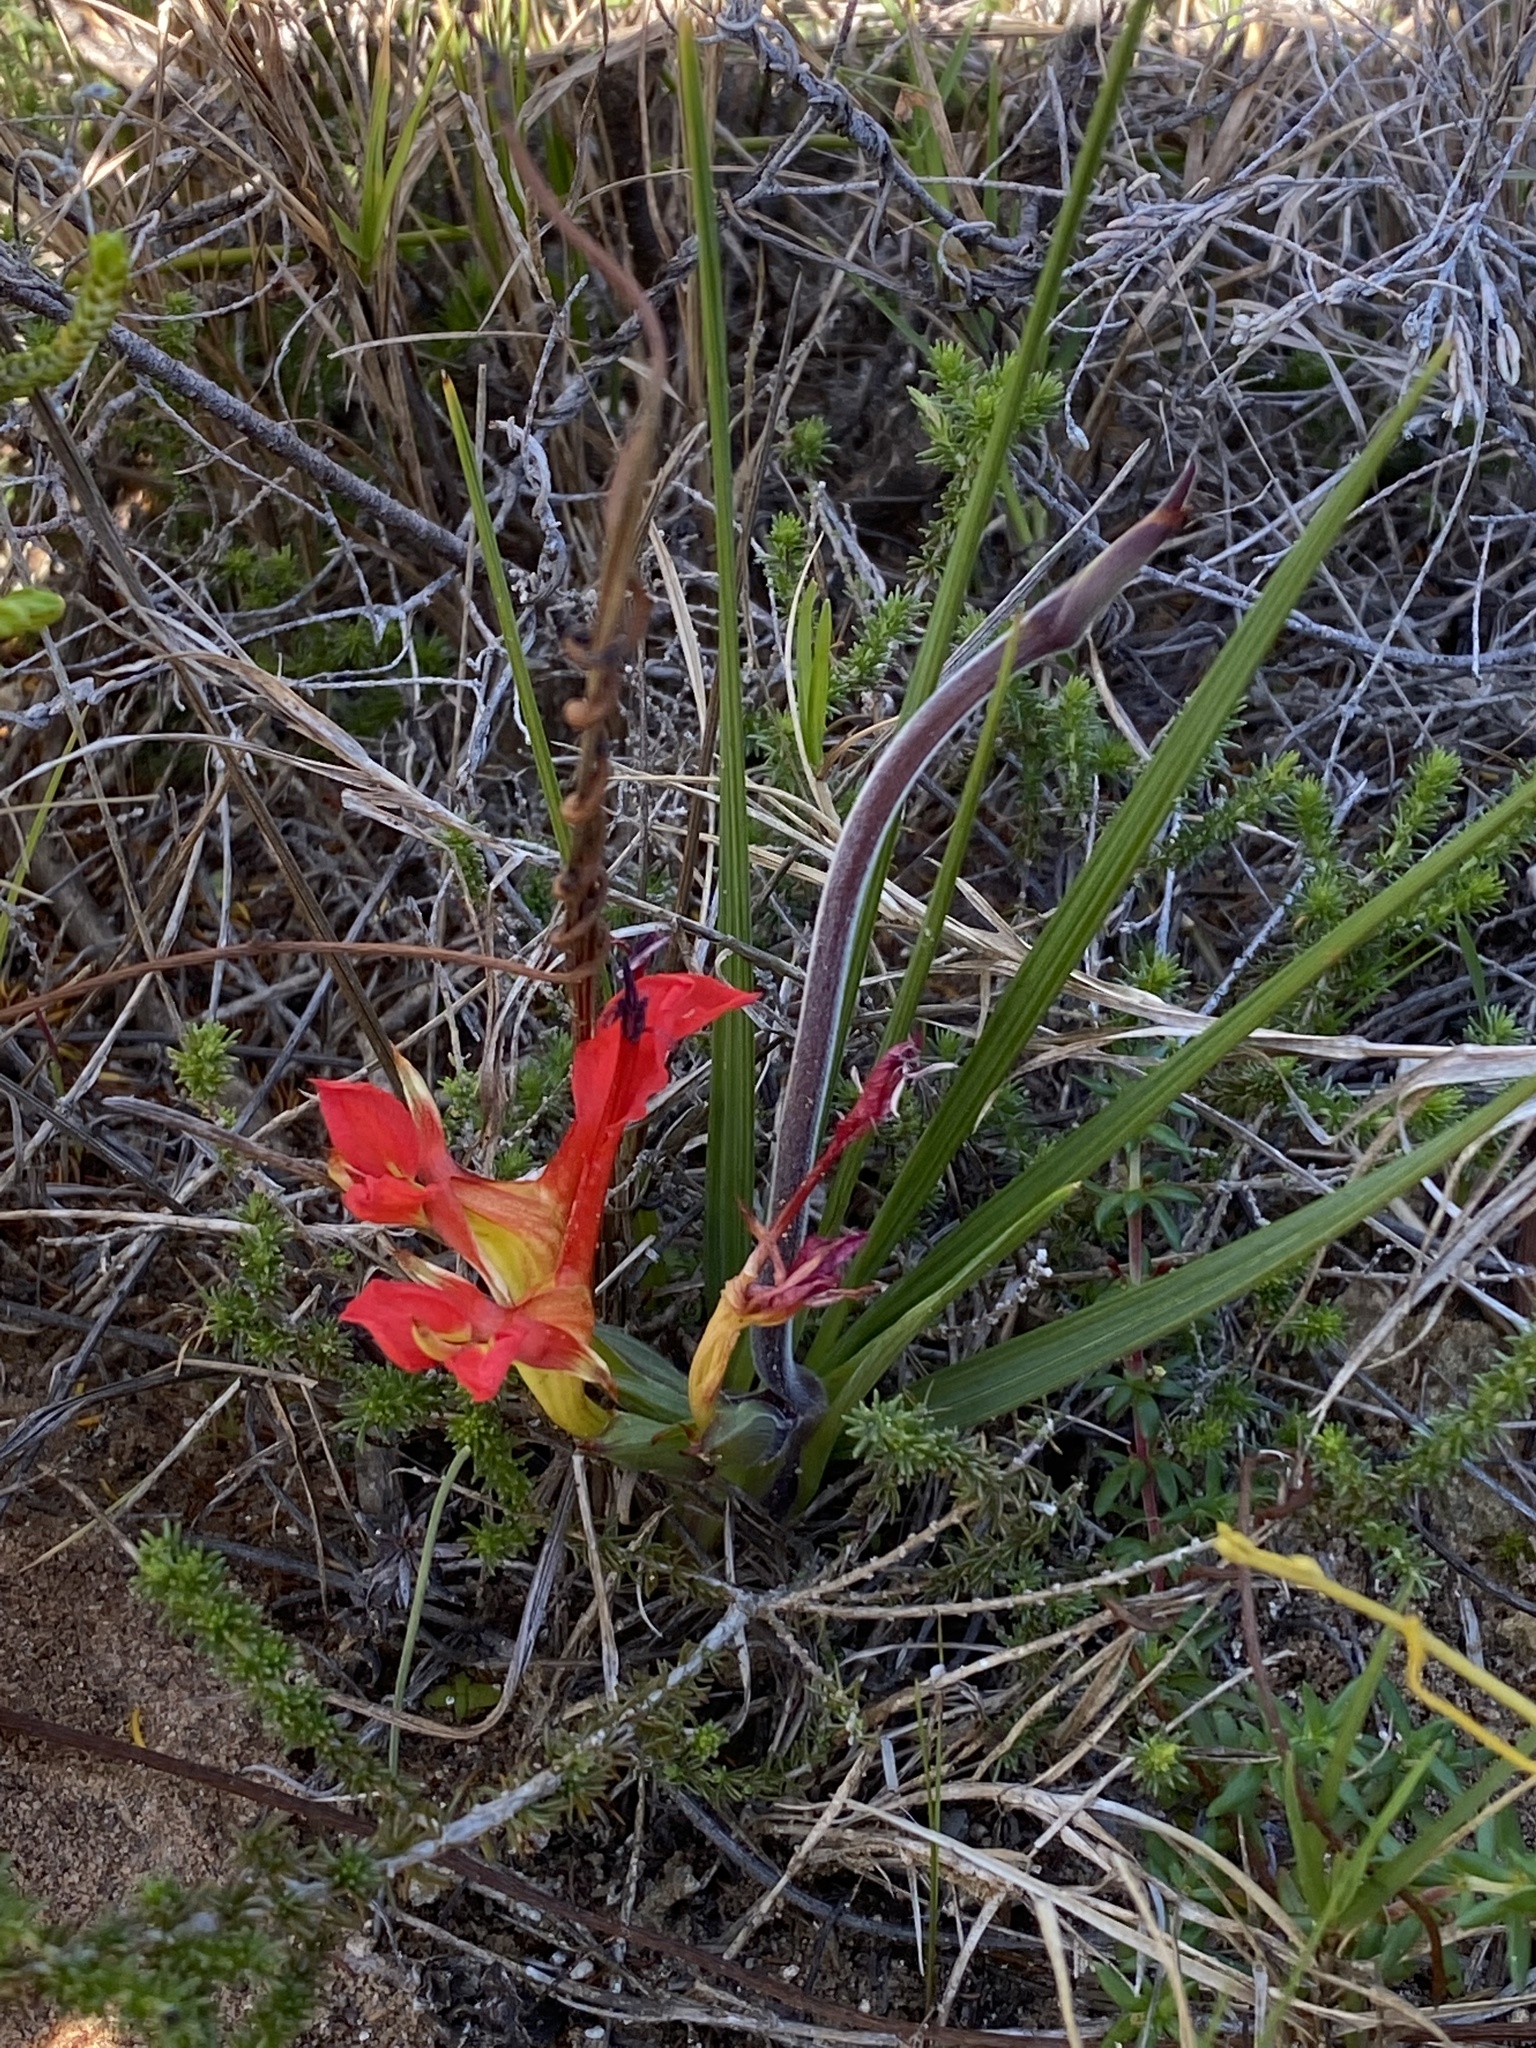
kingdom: Plantae
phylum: Tracheophyta
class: Liliopsida
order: Asparagales
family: Iridaceae
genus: Babiana
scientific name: Babiana ringens
